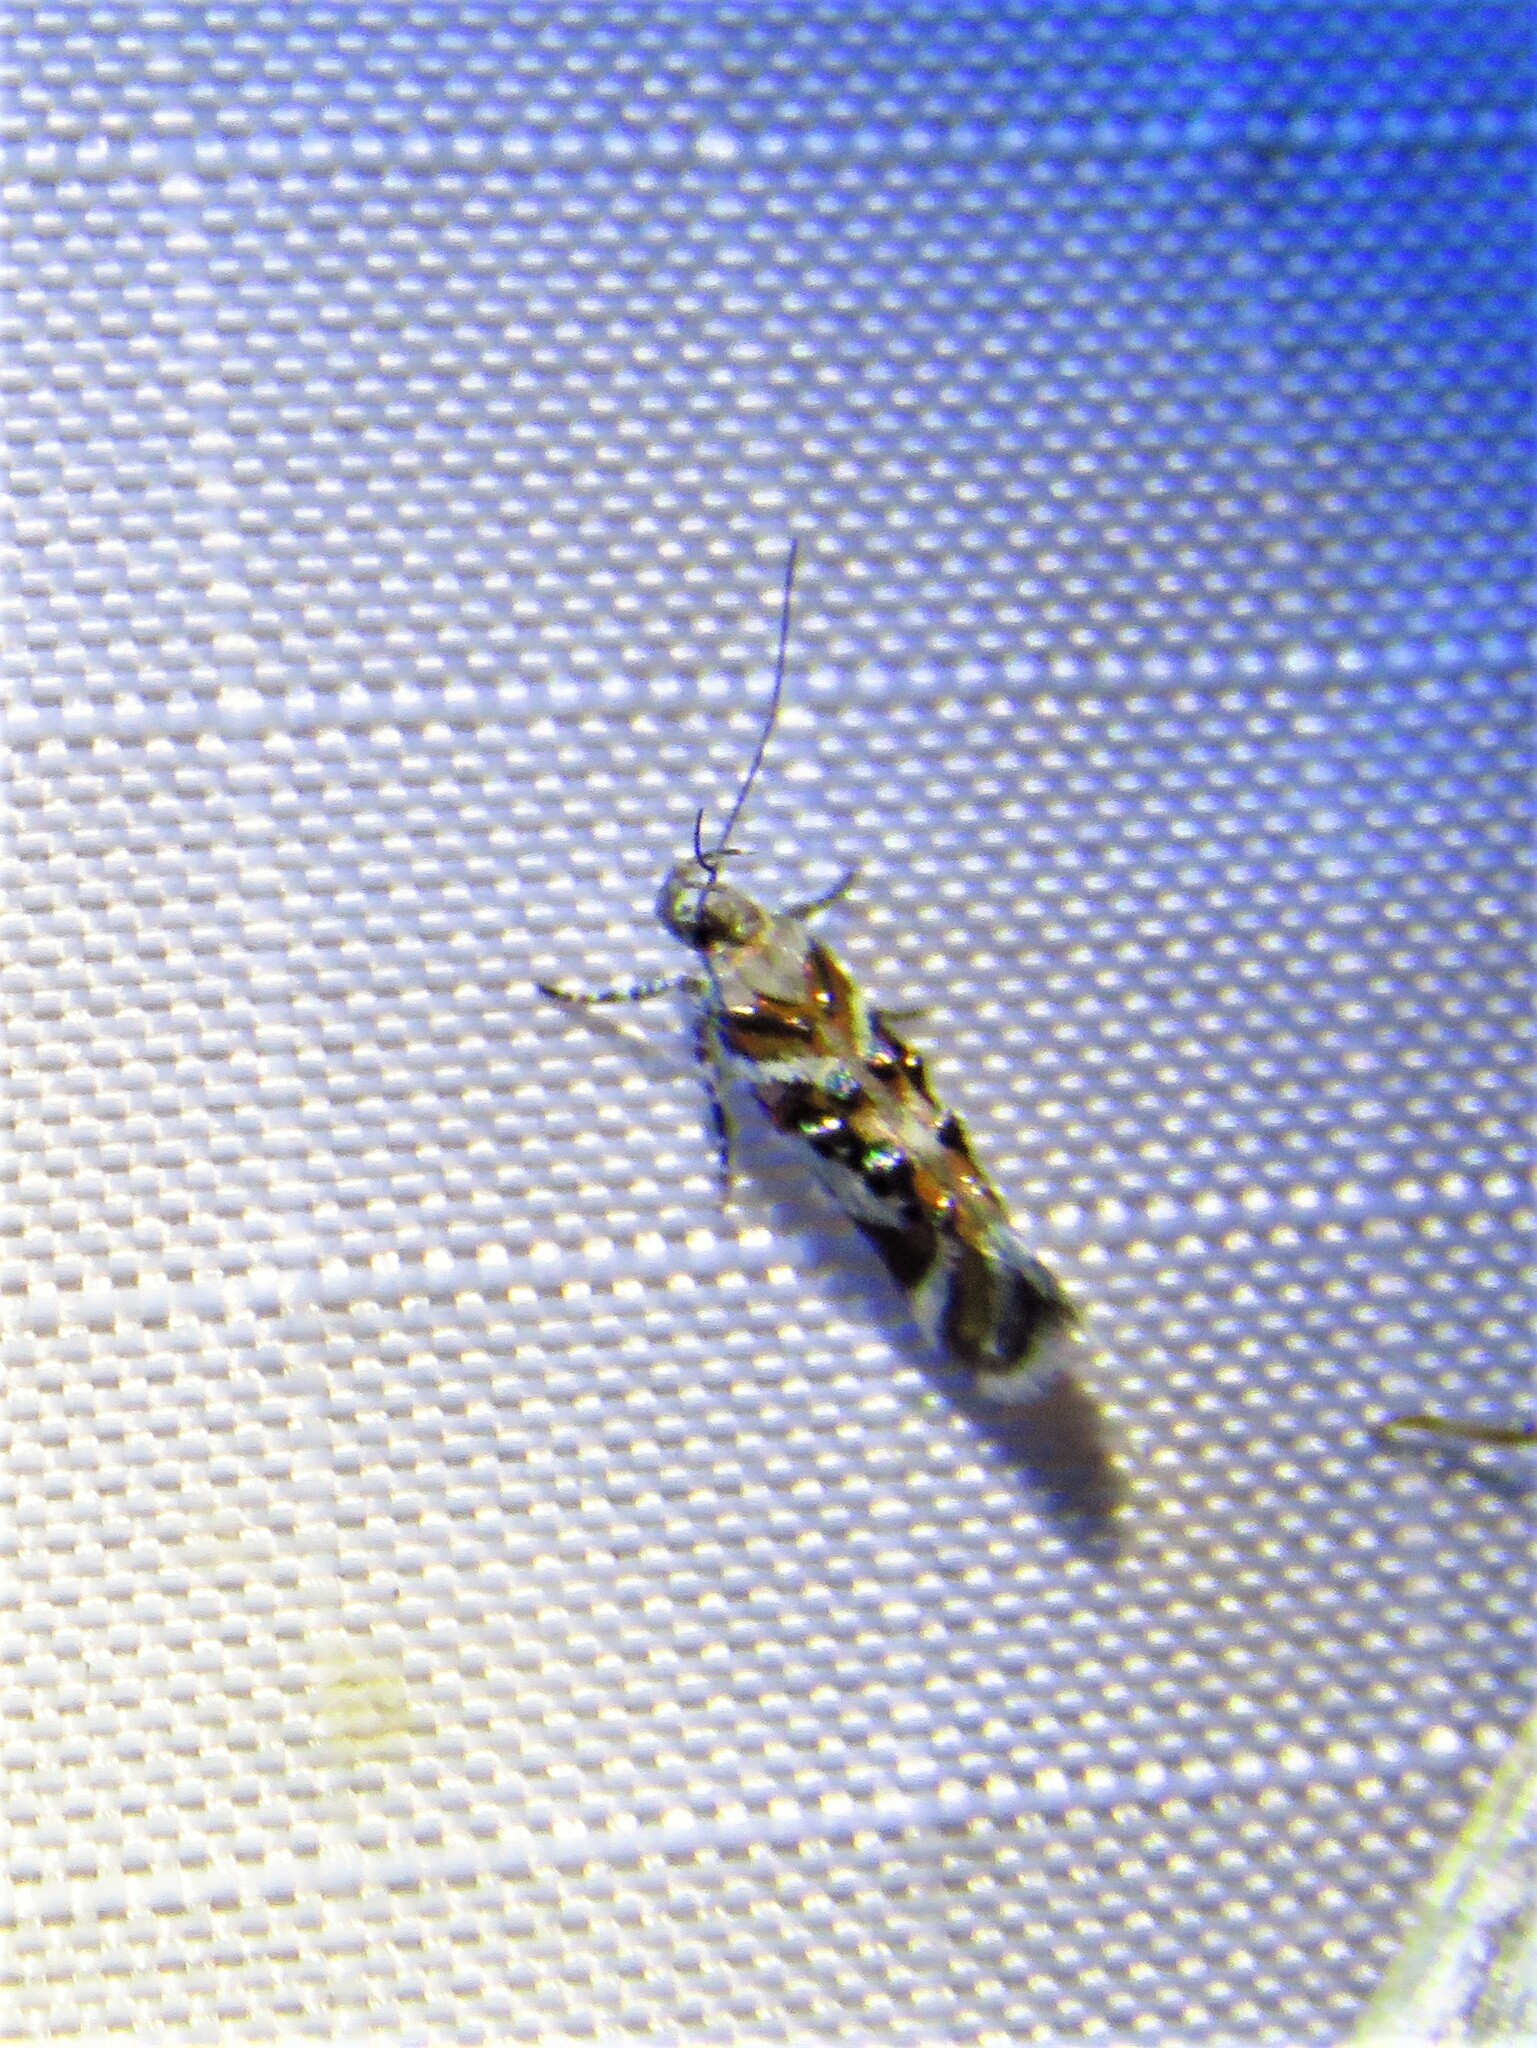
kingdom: Animalia
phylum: Arthropoda
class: Insecta
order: Lepidoptera
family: Gelechiidae
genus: Aristotelia
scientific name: Aristotelia elegantella
